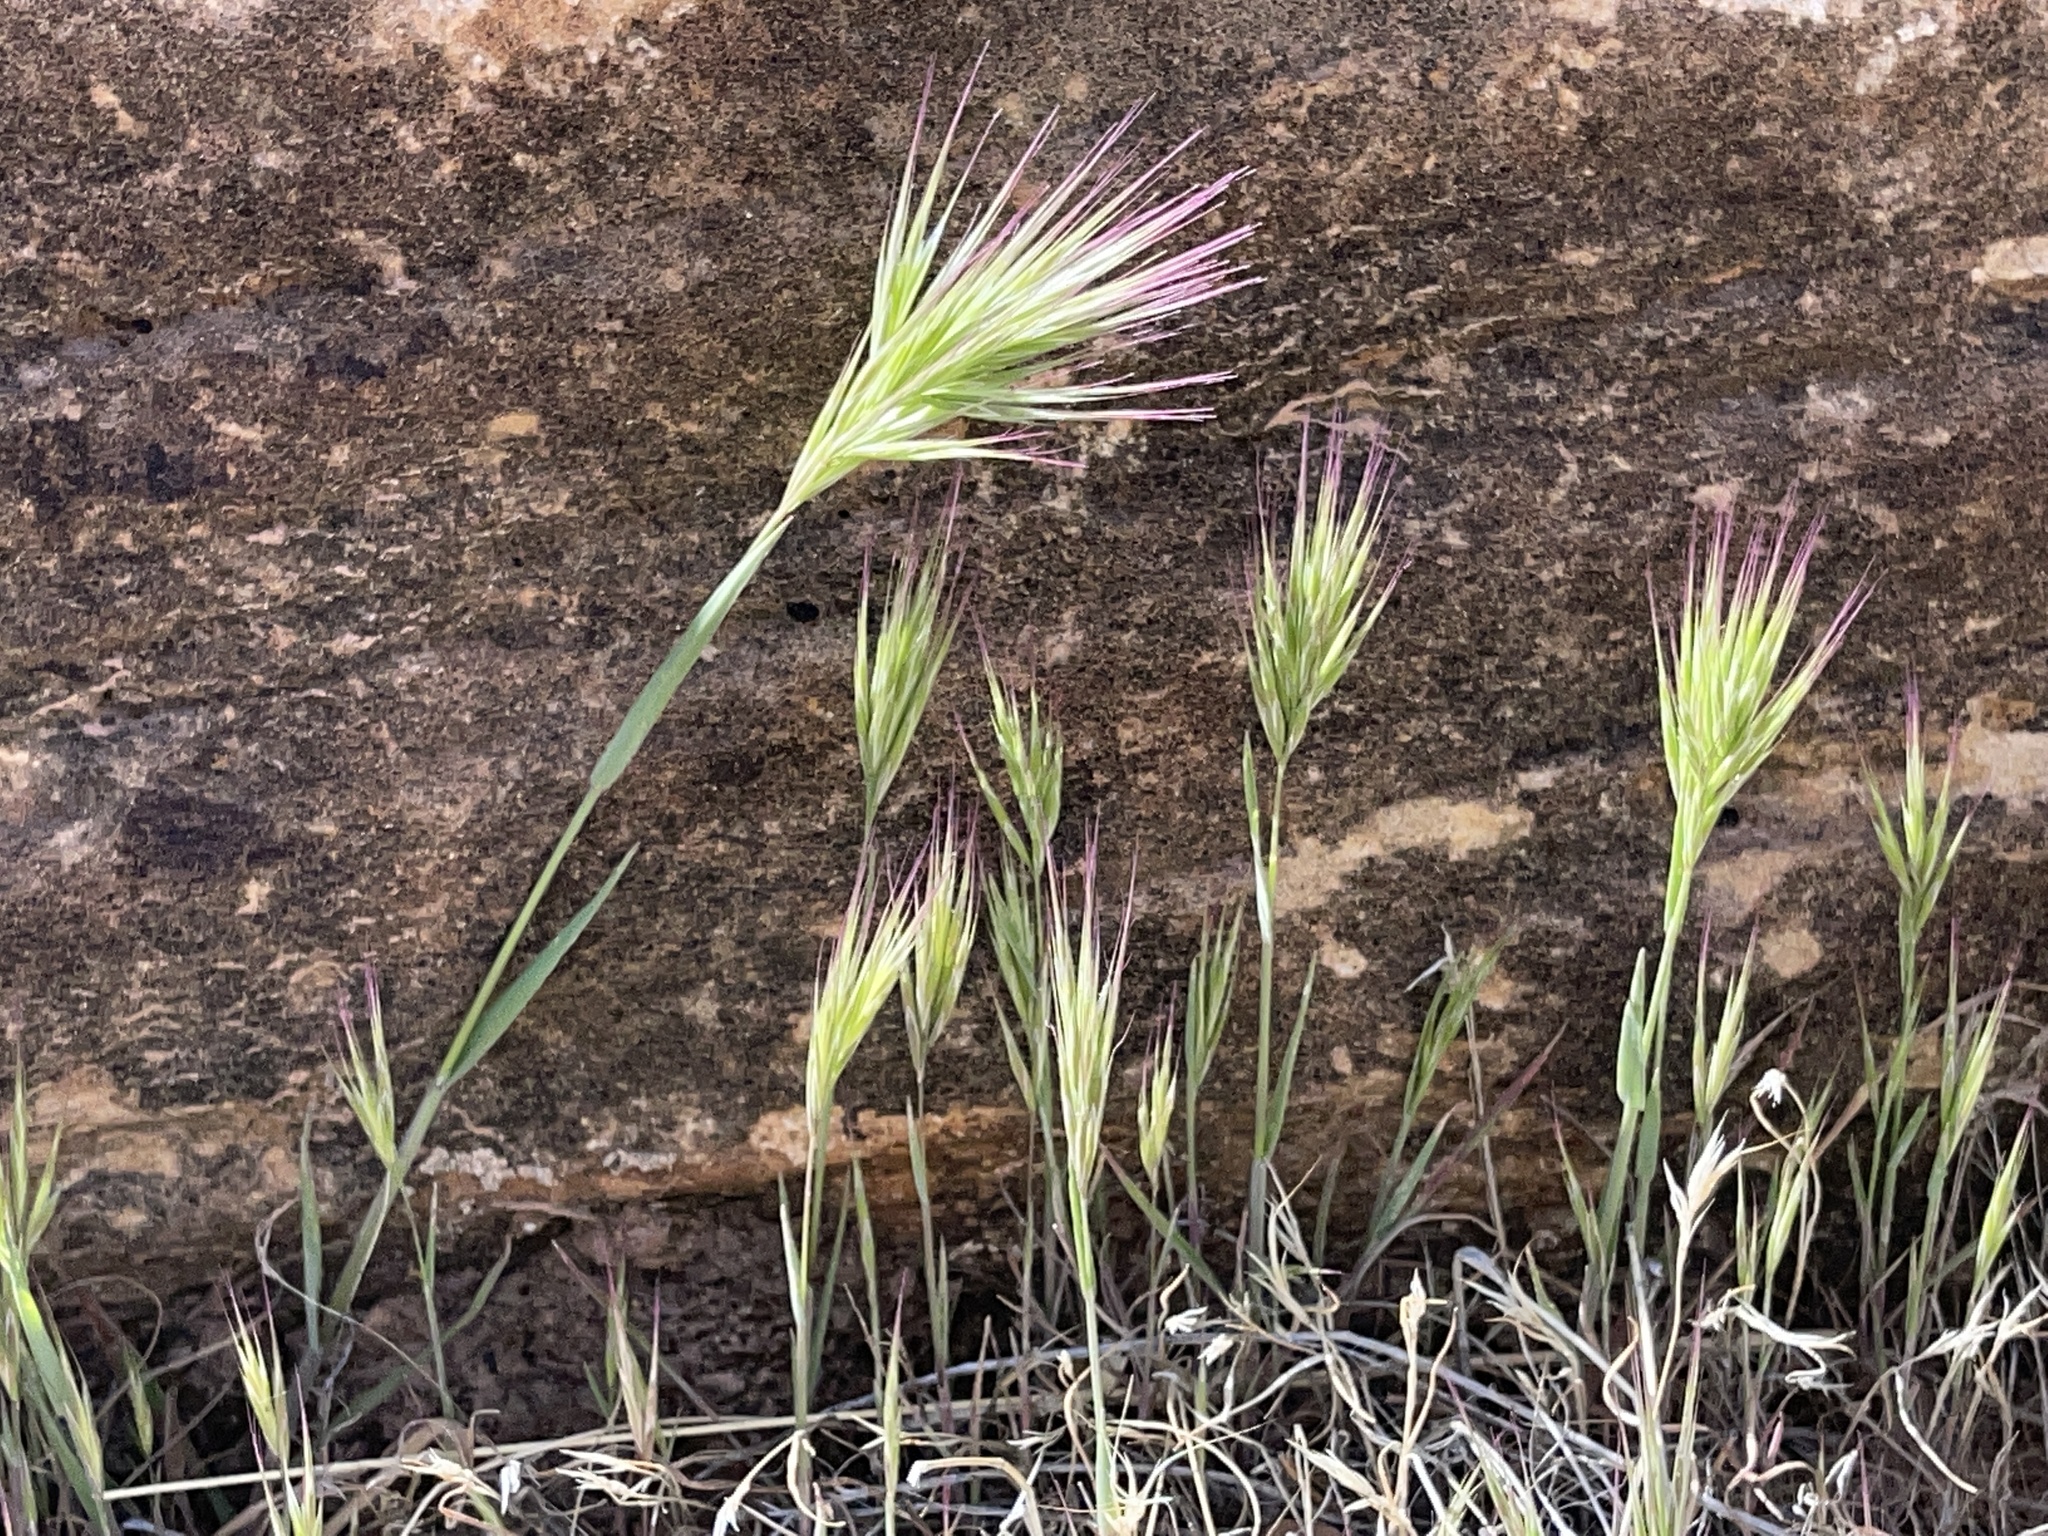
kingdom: Plantae
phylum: Tracheophyta
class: Liliopsida
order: Poales
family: Poaceae
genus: Bromus
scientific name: Bromus rubens
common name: Red brome
